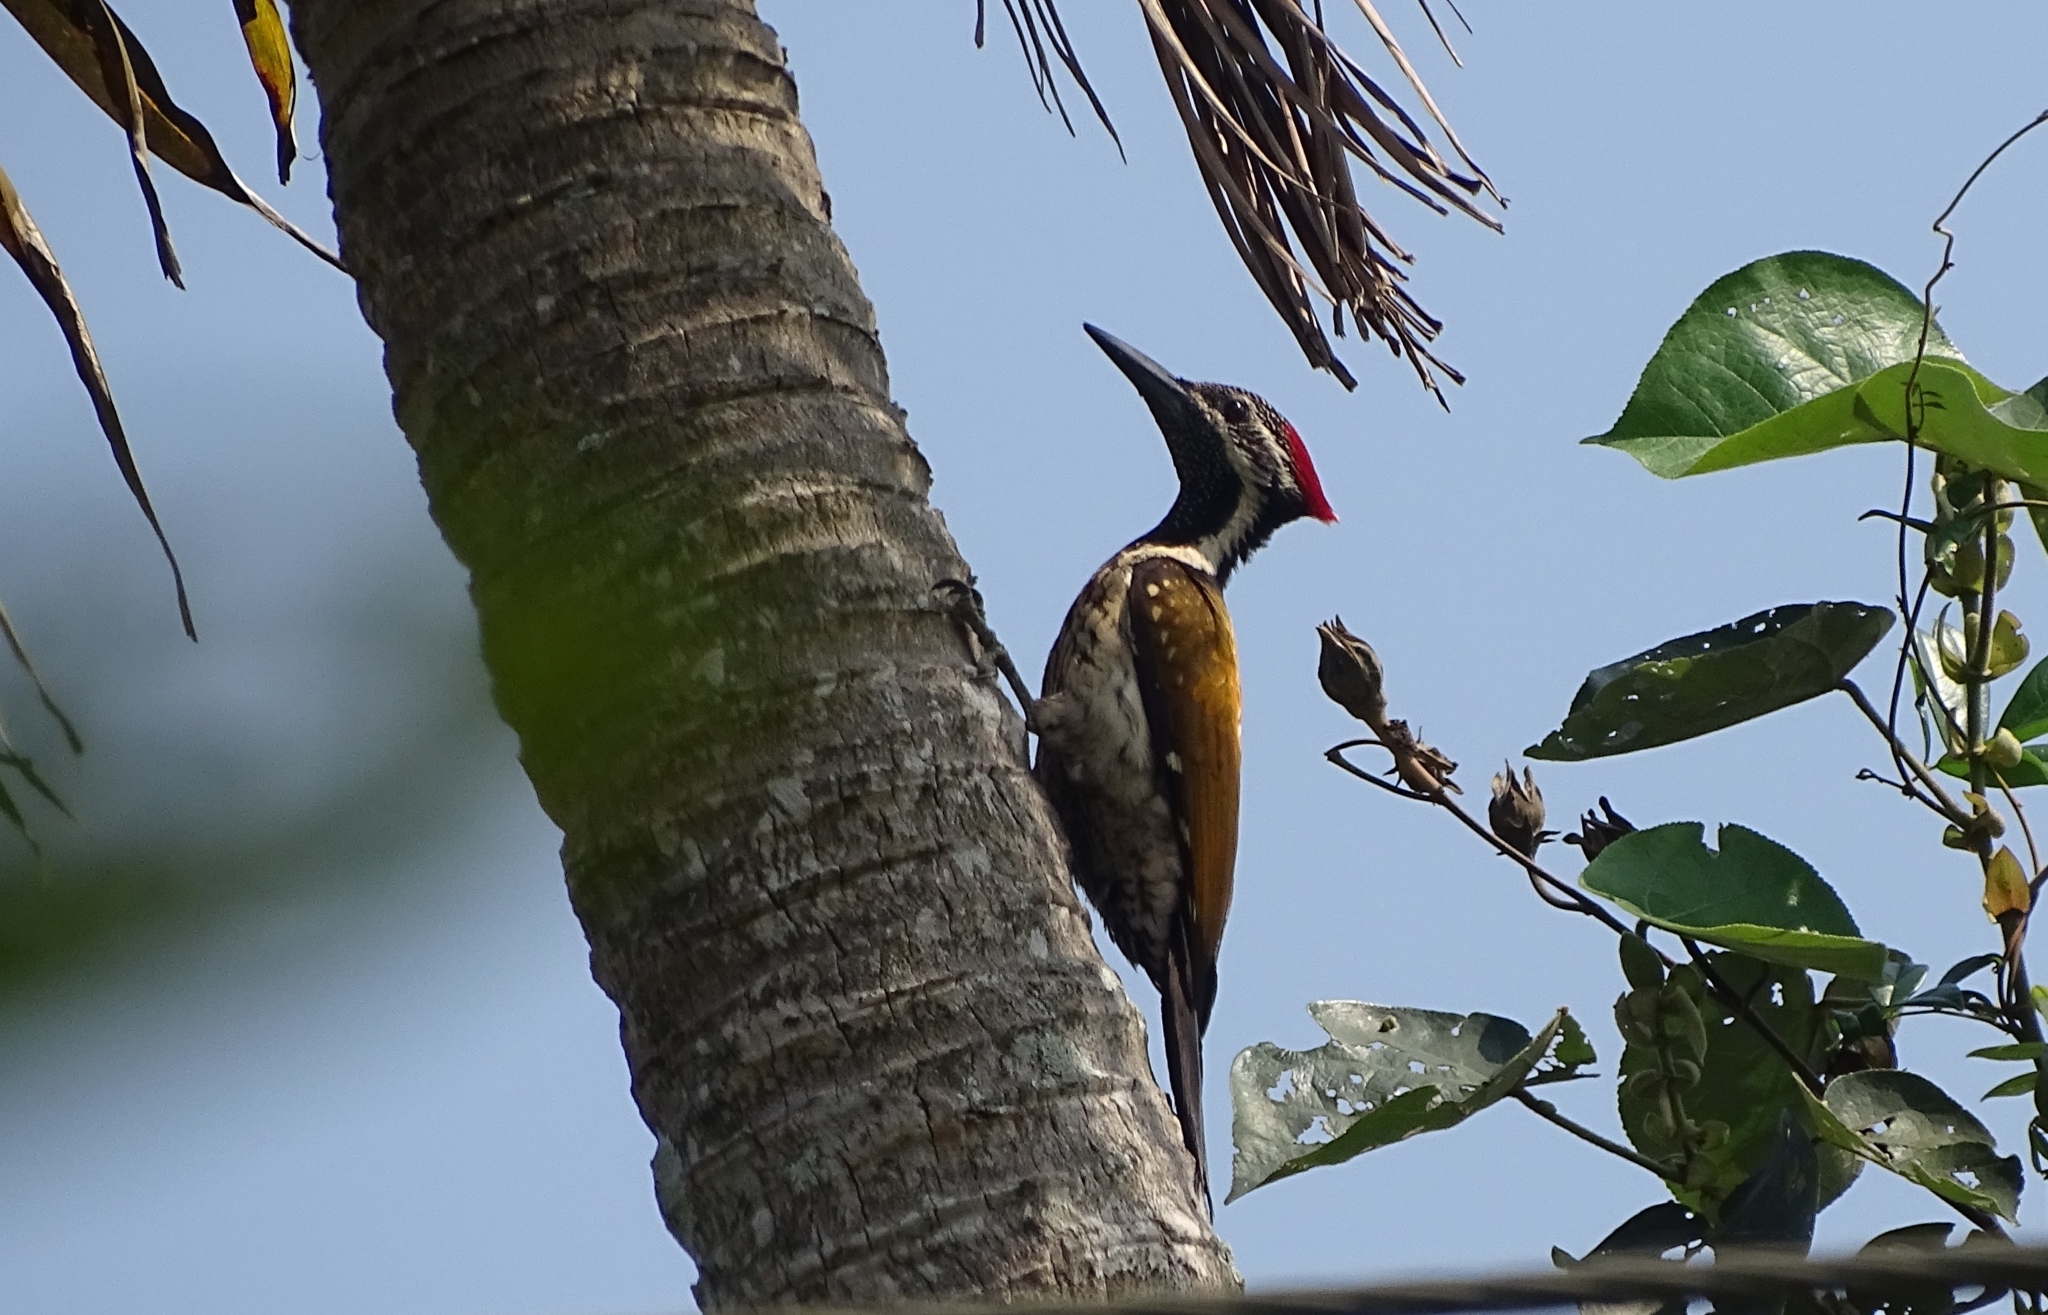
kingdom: Animalia
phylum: Chordata
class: Aves
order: Piciformes
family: Picidae
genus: Dinopium
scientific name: Dinopium benghalense
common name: Black-rumped flameback
